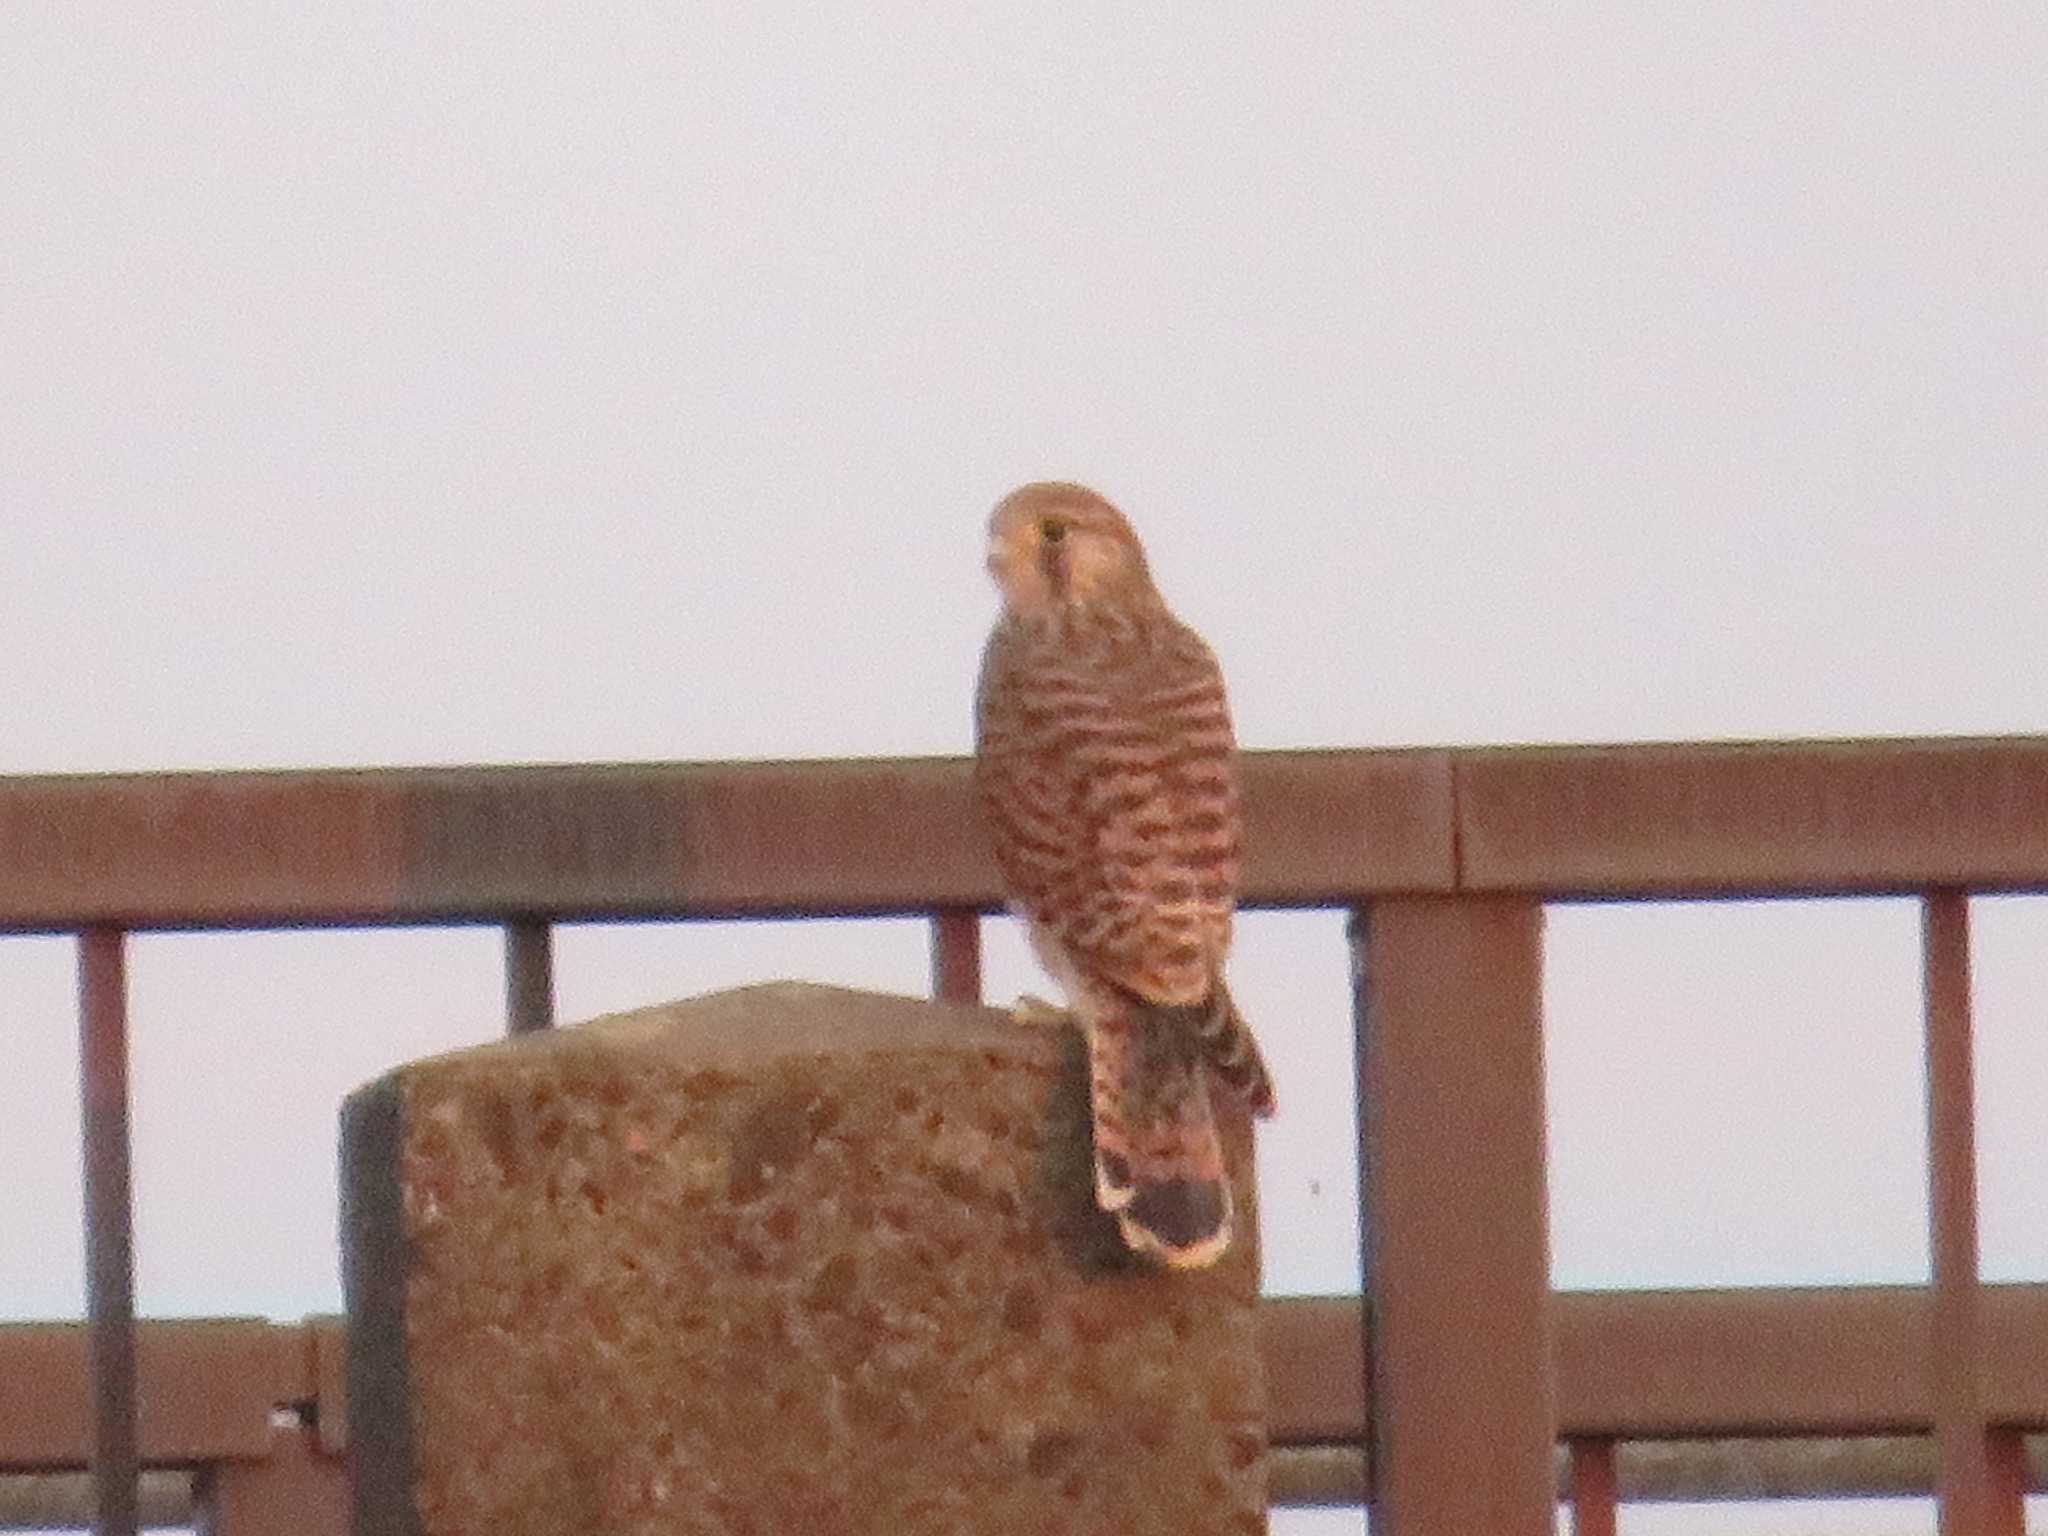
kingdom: Animalia
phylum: Chordata
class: Aves
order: Falconiformes
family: Falconidae
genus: Falco
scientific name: Falco tinnunculus
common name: Common kestrel
